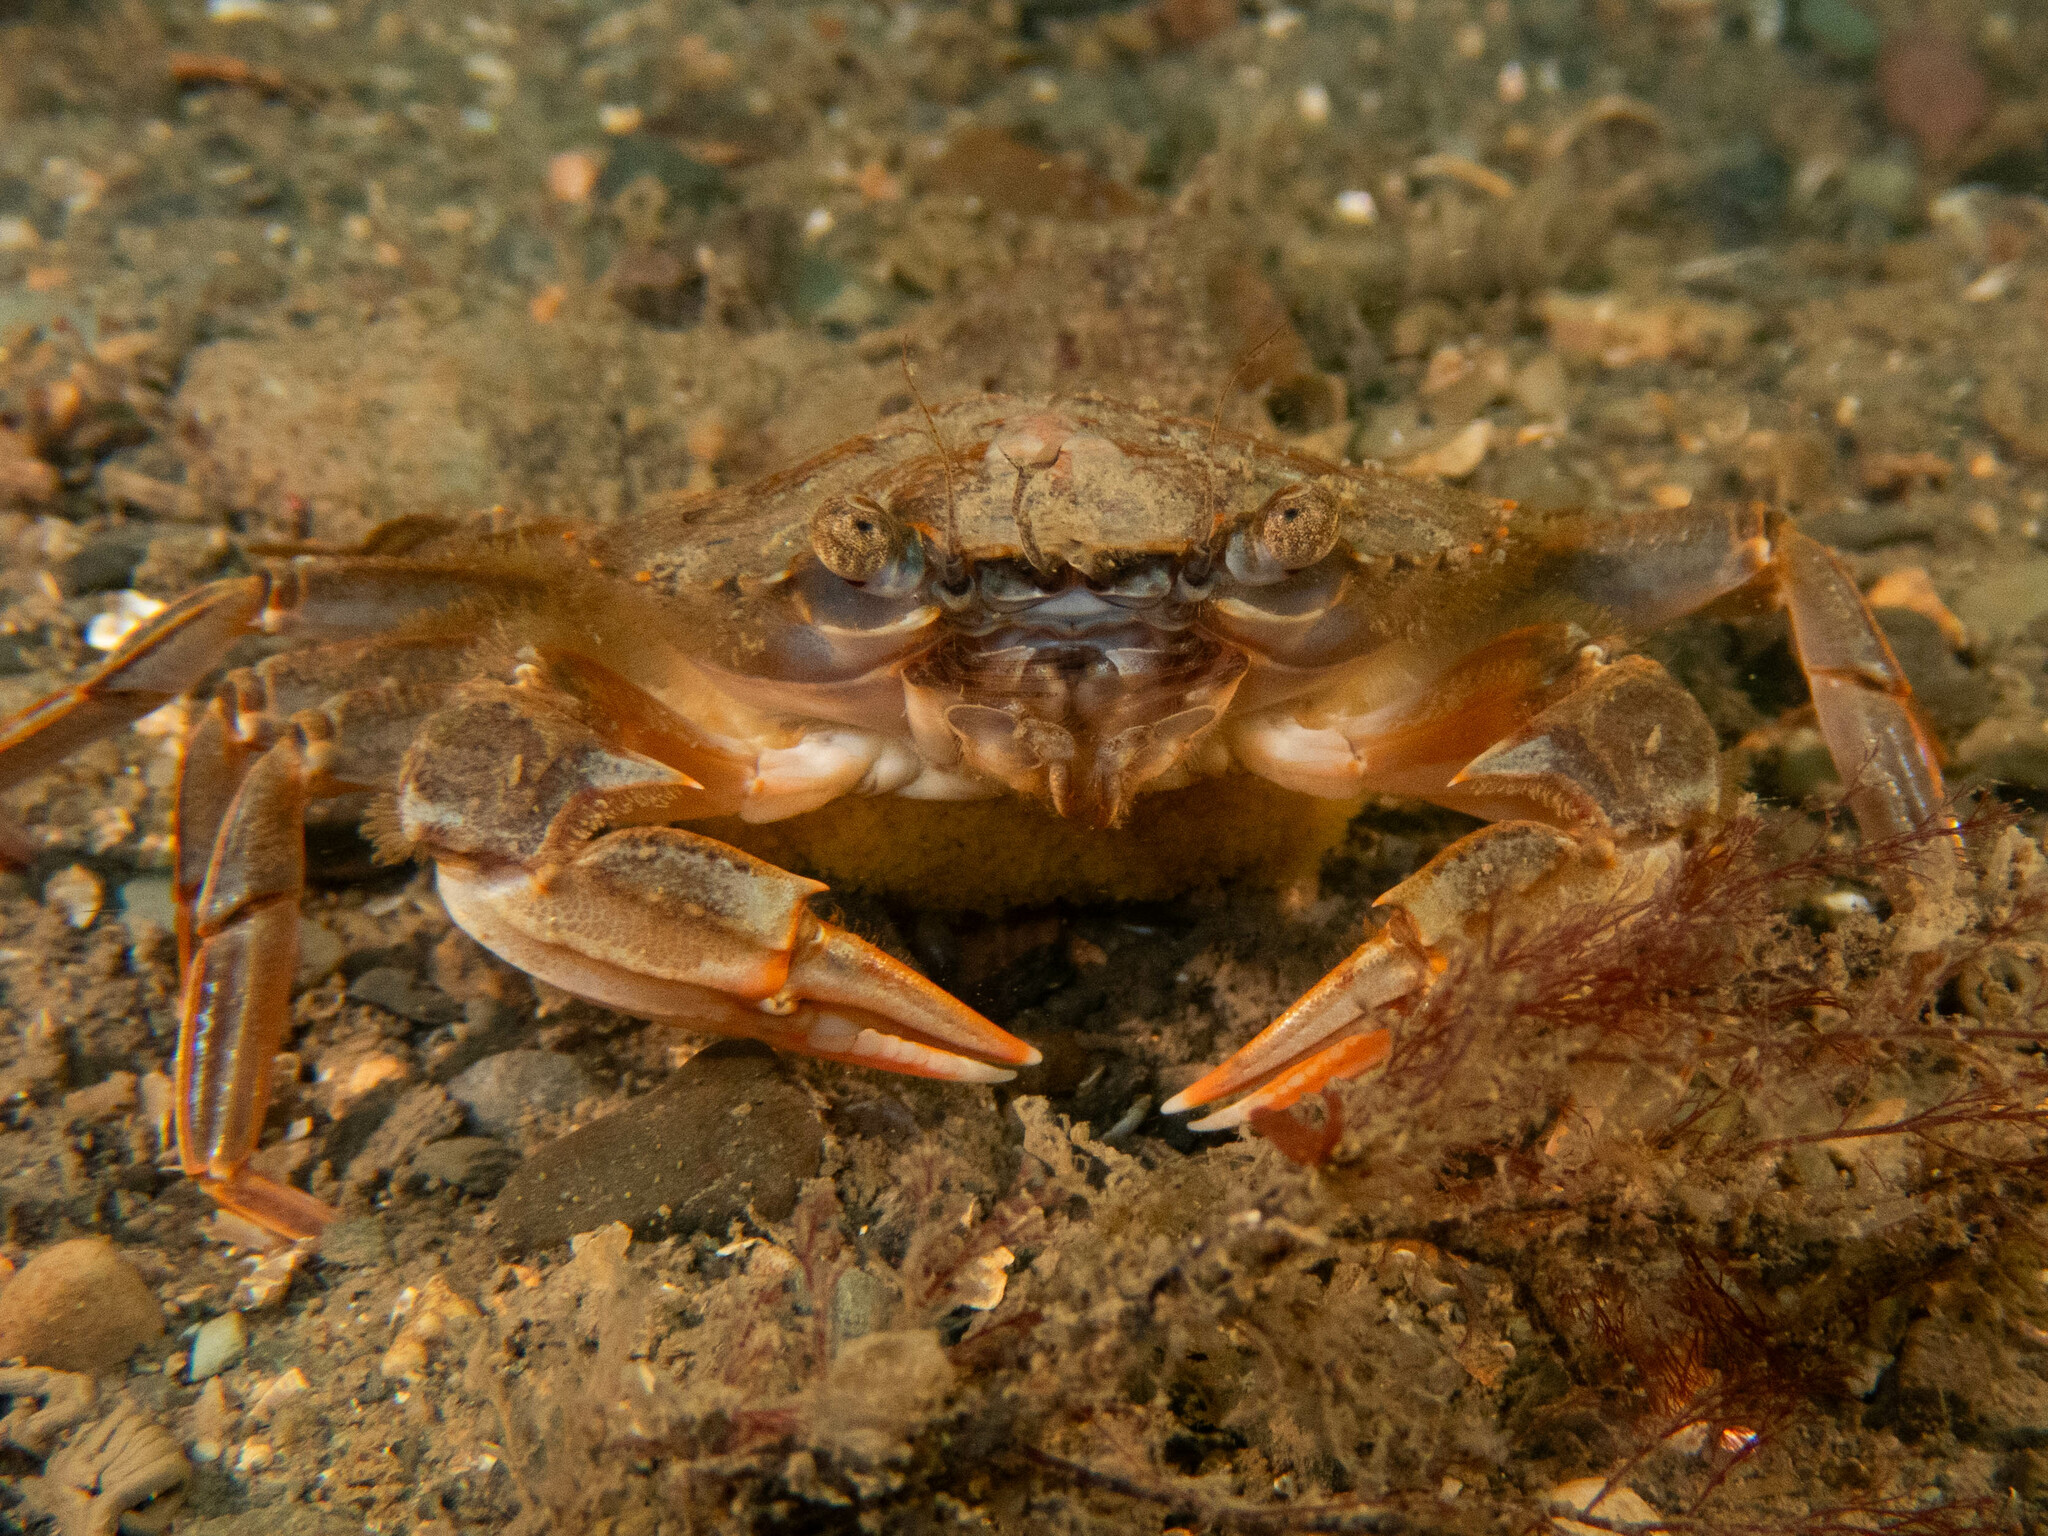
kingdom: Animalia
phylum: Arthropoda
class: Malacostraca
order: Decapoda
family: Polybiidae
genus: Liocarcinus
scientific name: Liocarcinus depurator
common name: Cleanser crab
